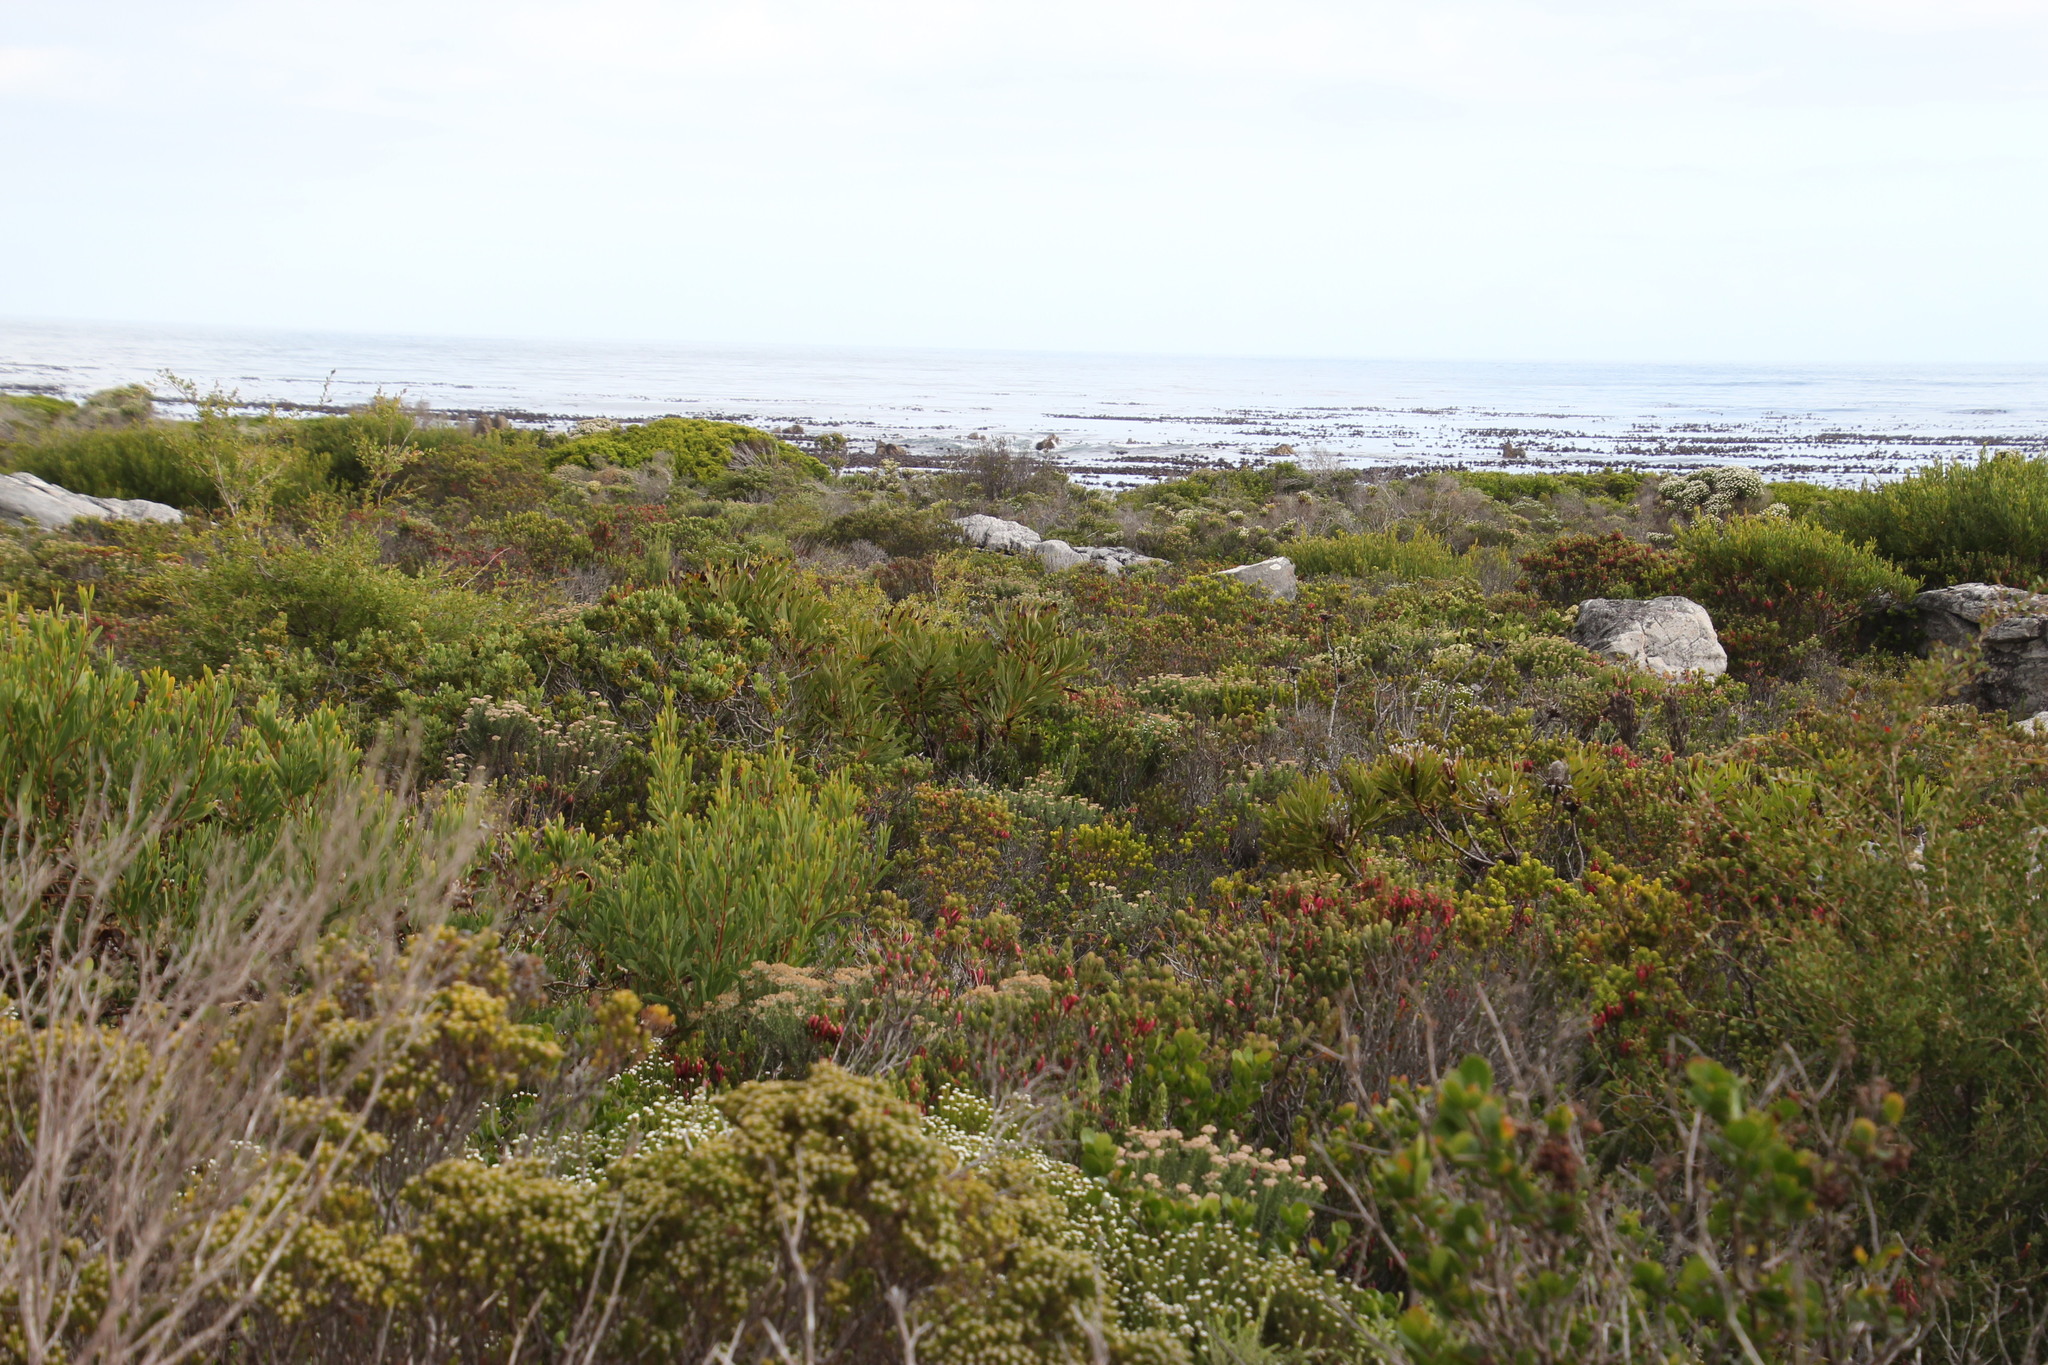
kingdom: Plantae
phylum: Tracheophyta
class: Magnoliopsida
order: Proteales
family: Proteaceae
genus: Protea
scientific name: Protea neriifolia
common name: Blue sugarbush
